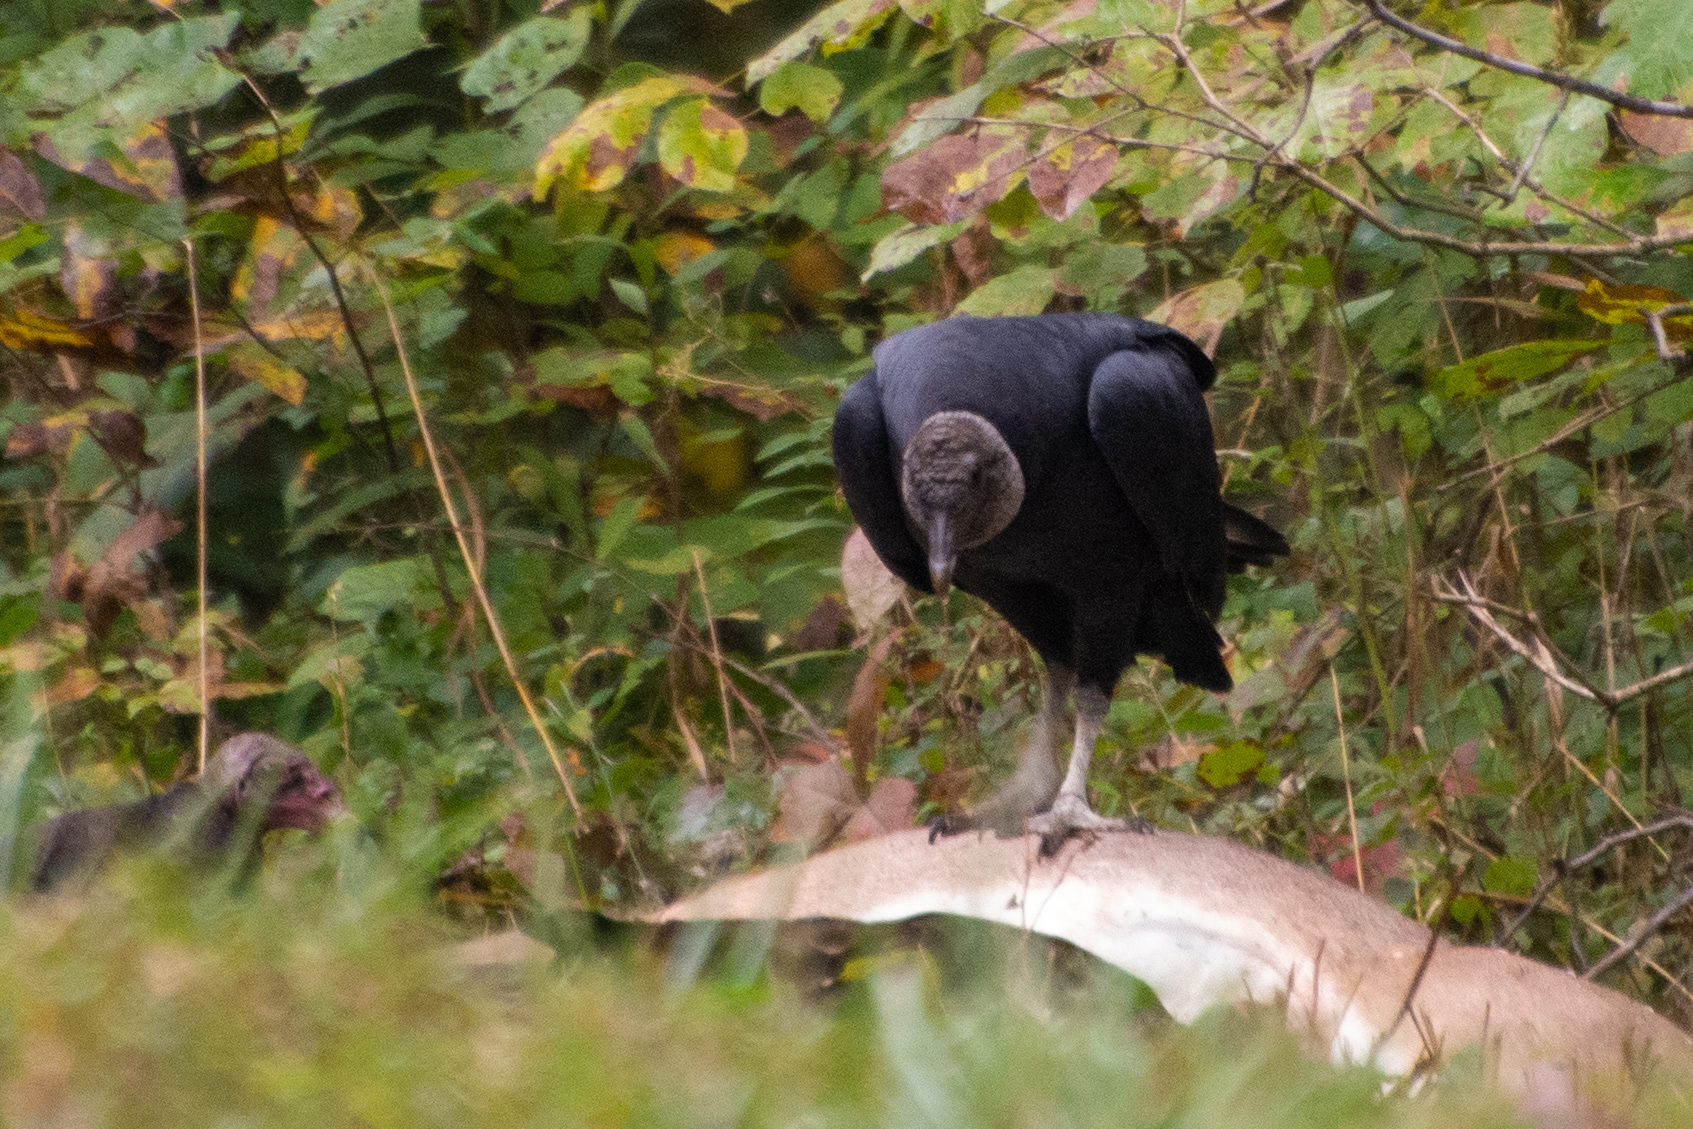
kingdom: Animalia
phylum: Chordata
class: Aves
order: Accipitriformes
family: Cathartidae
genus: Coragyps
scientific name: Coragyps atratus
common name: Black vulture
